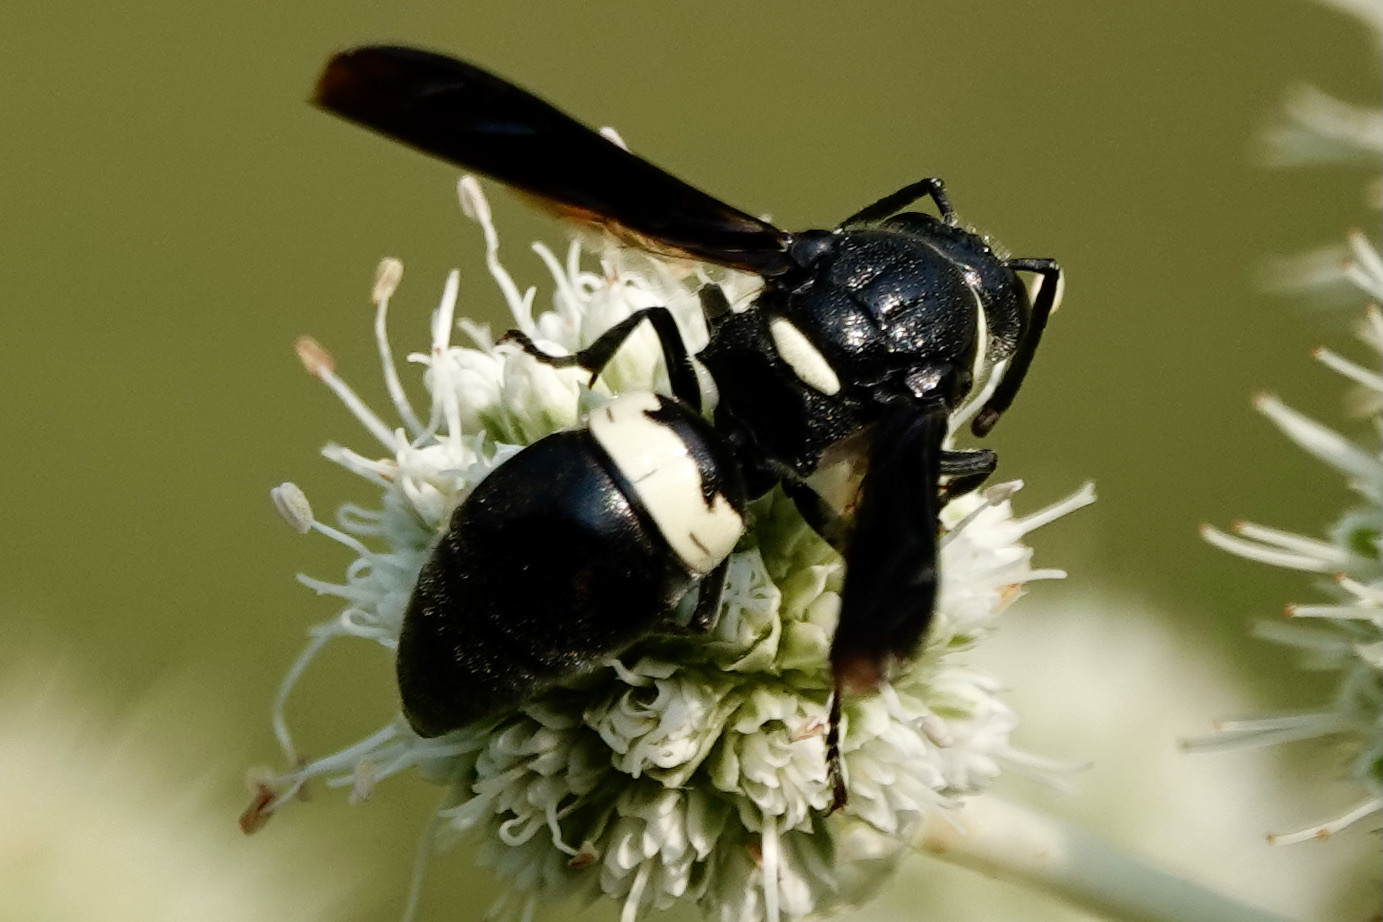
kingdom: Animalia
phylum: Arthropoda
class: Insecta
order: Hymenoptera
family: Eumenidae
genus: Monobia
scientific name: Monobia quadridens
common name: Four-toothed mason wasp
